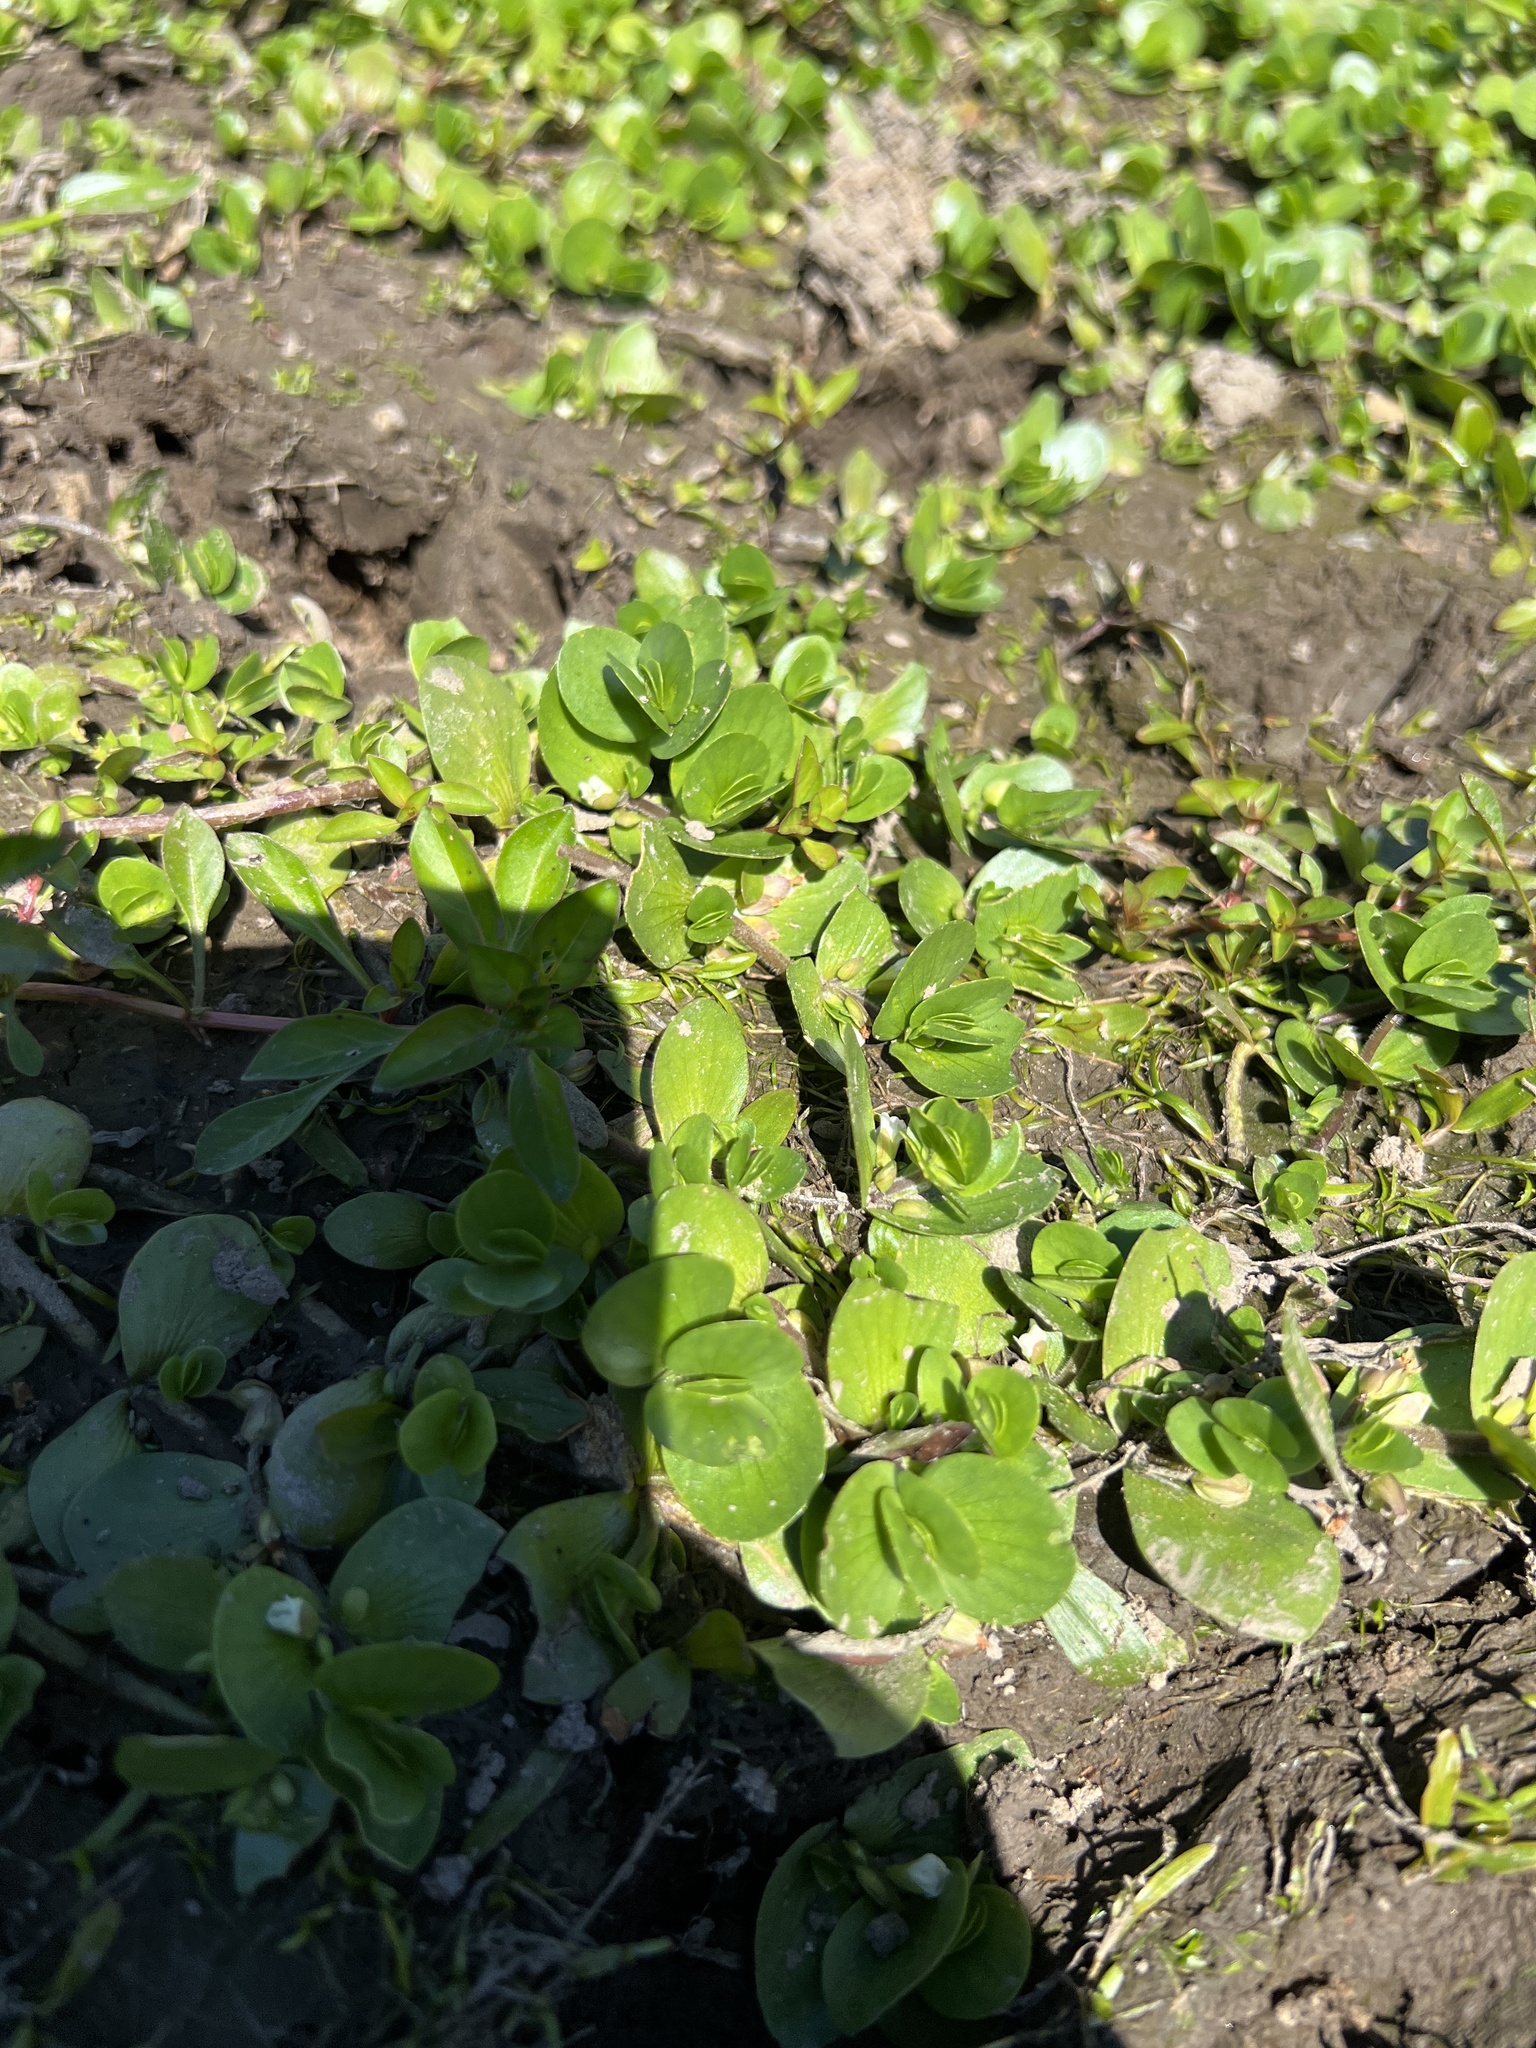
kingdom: Plantae
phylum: Tracheophyta
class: Magnoliopsida
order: Lamiales
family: Plantaginaceae
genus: Bacopa
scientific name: Bacopa rotundifolia
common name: Disc water hyssop
